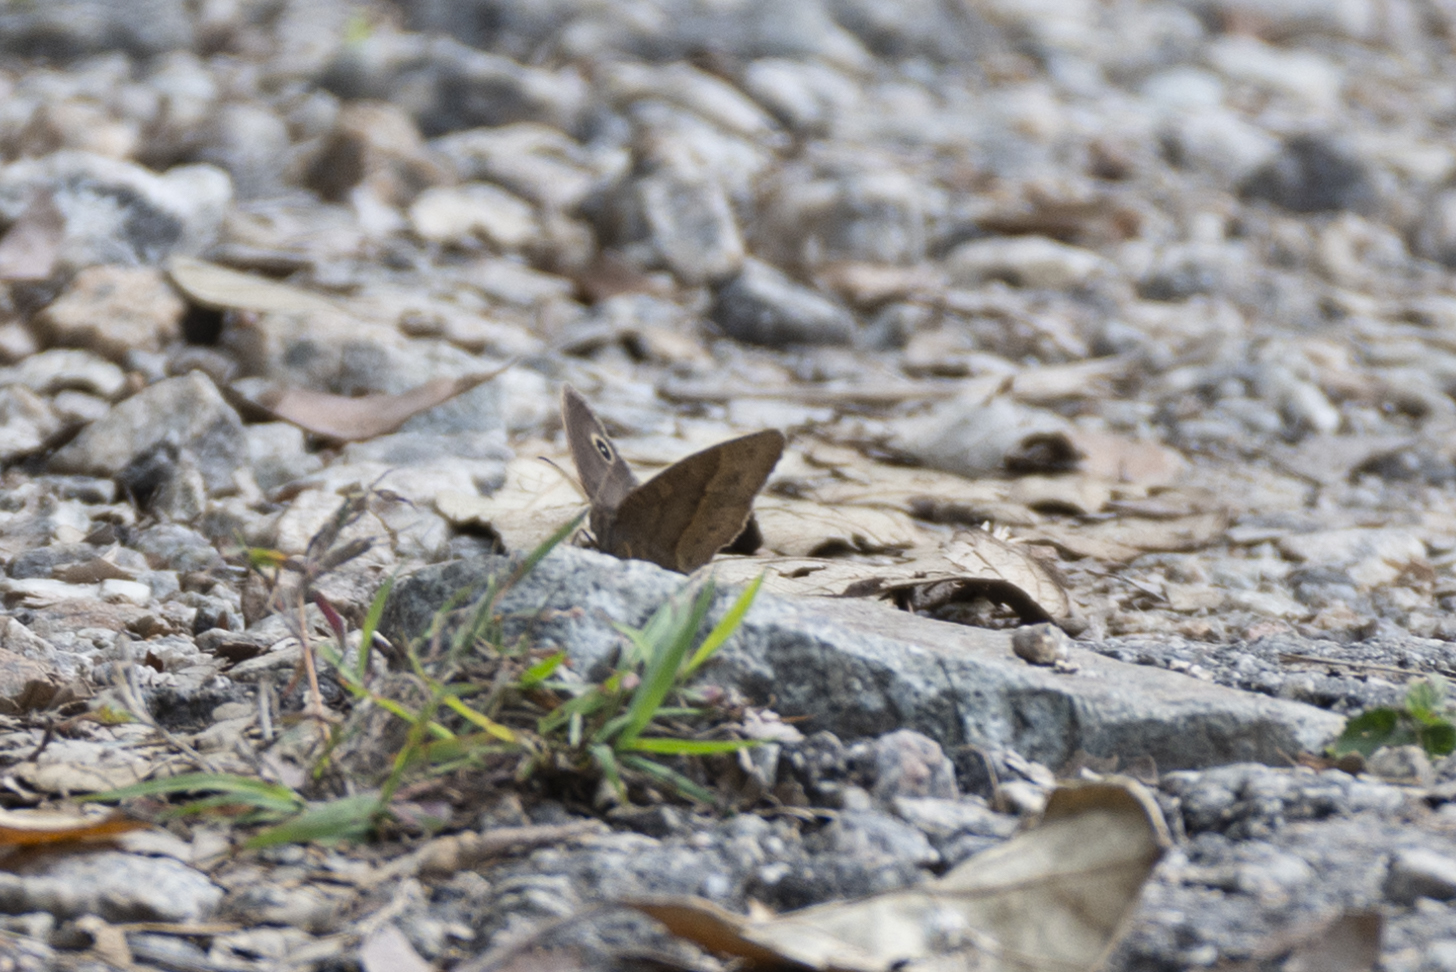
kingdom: Animalia
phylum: Arthropoda
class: Insecta
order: Lepidoptera
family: Nymphalidae
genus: Mycalesis
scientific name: Mycalesis mineus
